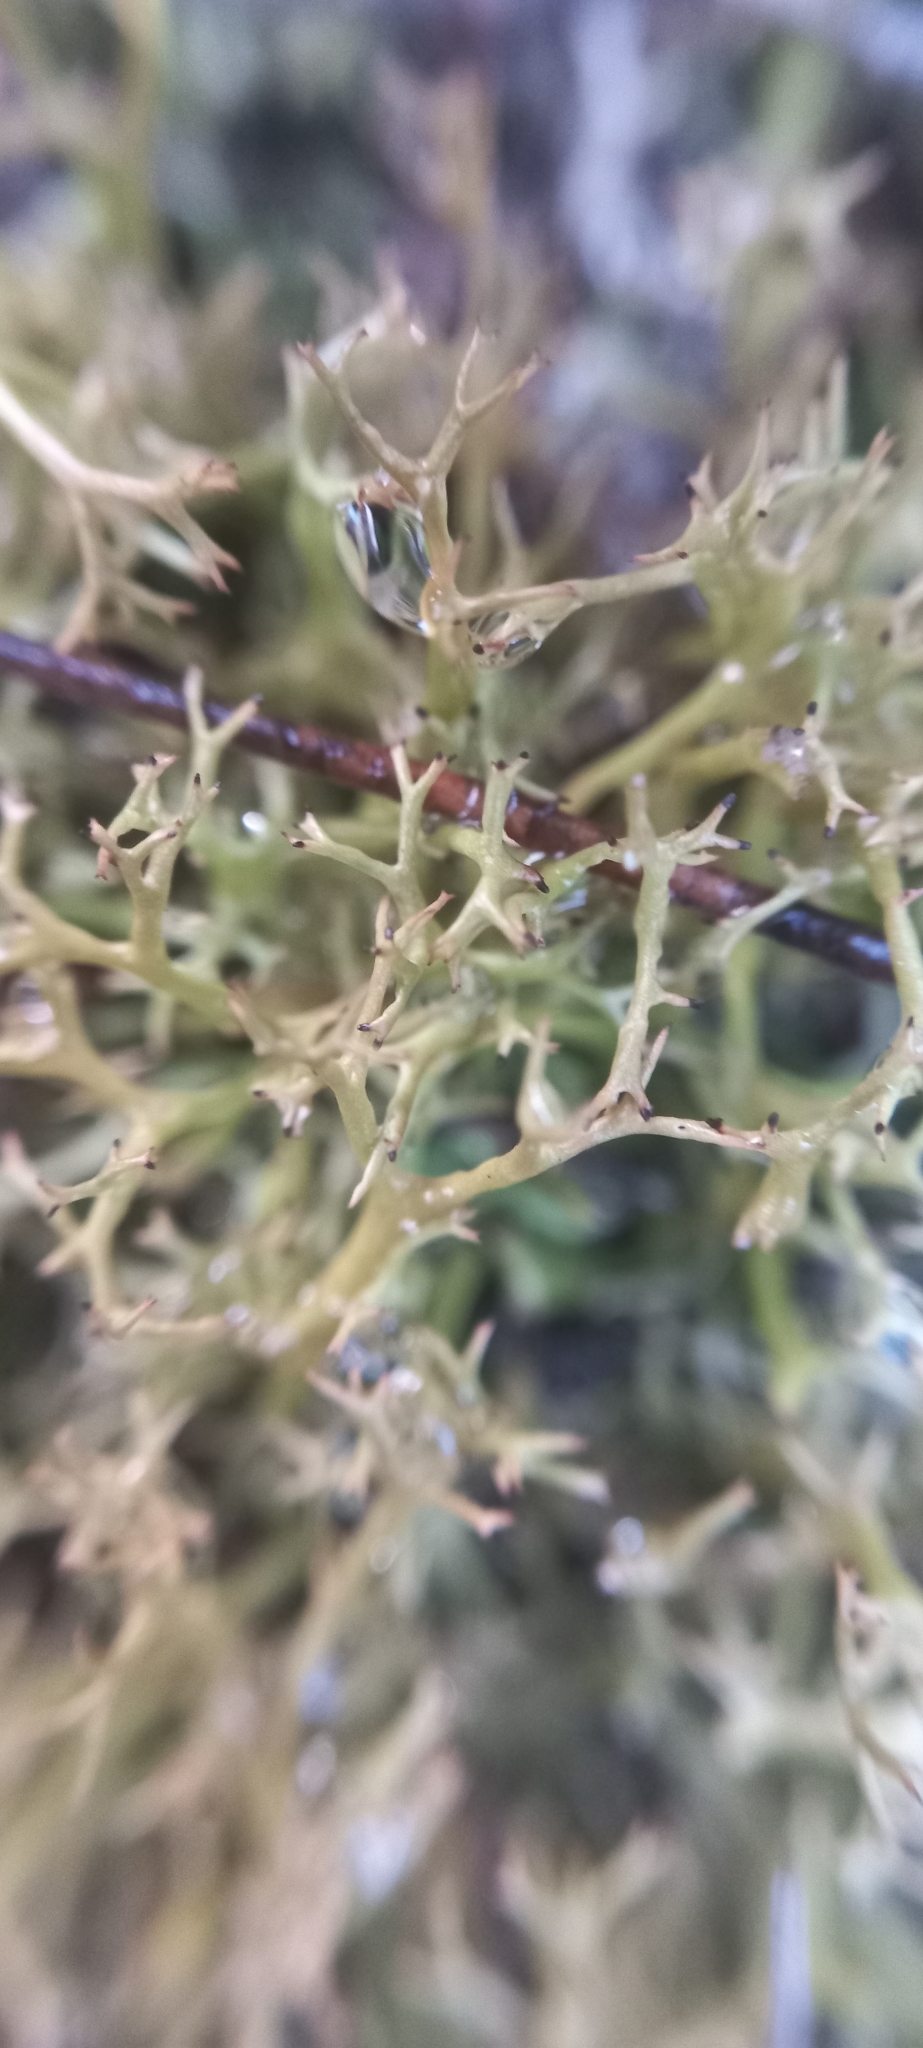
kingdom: Fungi
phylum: Ascomycota
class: Lecanoromycetes
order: Lecanorales
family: Cladoniaceae
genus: Cladia
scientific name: Cladia aggregata
